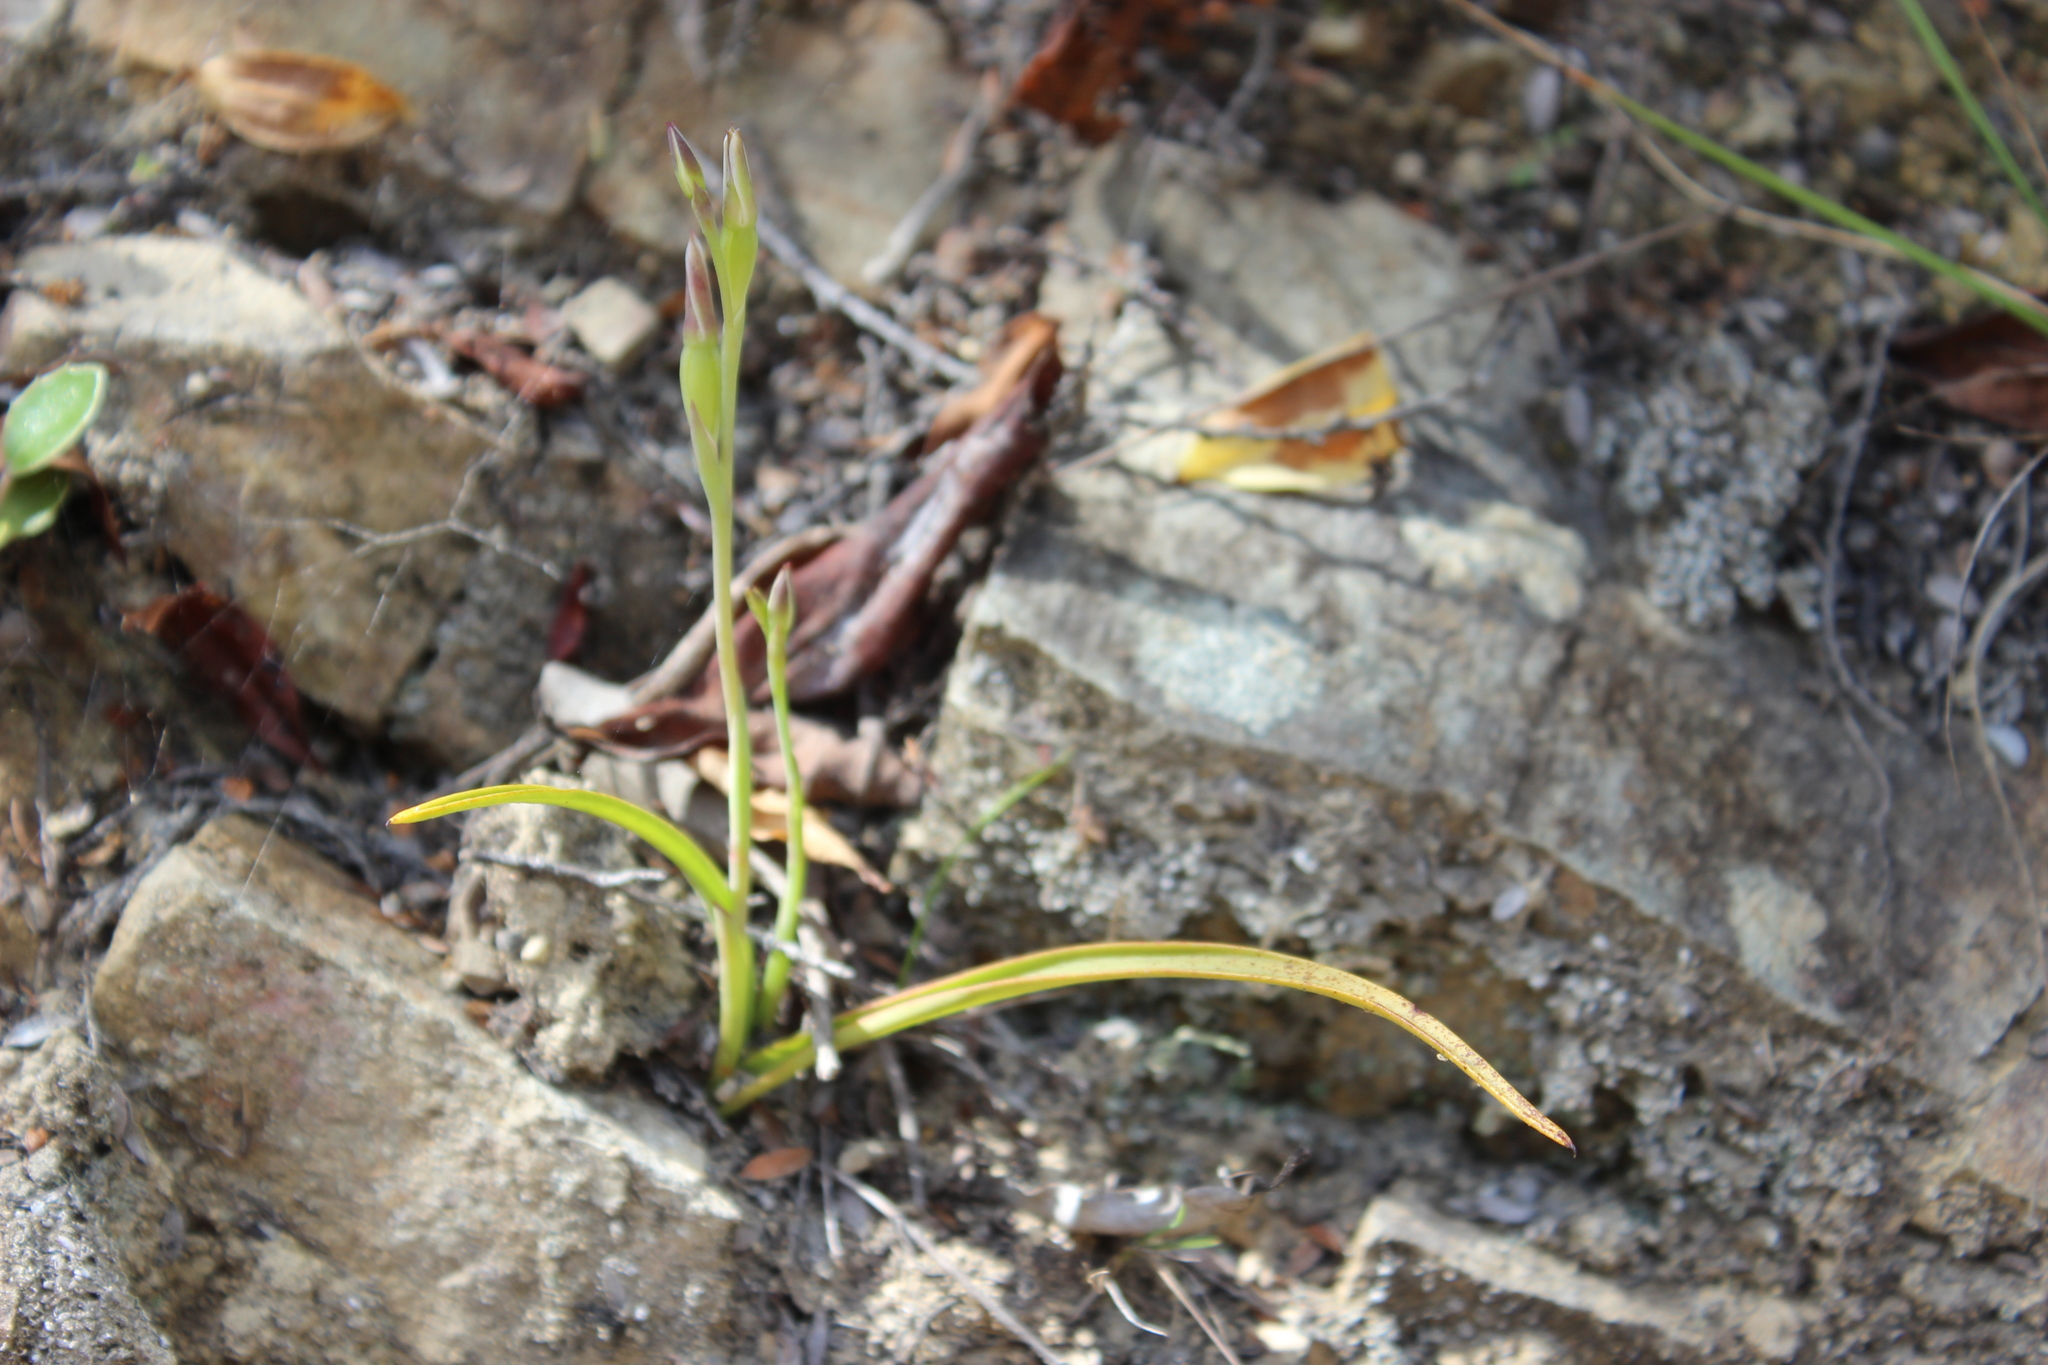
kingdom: Plantae
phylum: Tracheophyta
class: Liliopsida
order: Asparagales
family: Orchidaceae
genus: Thelymitra
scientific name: Thelymitra longifolia
